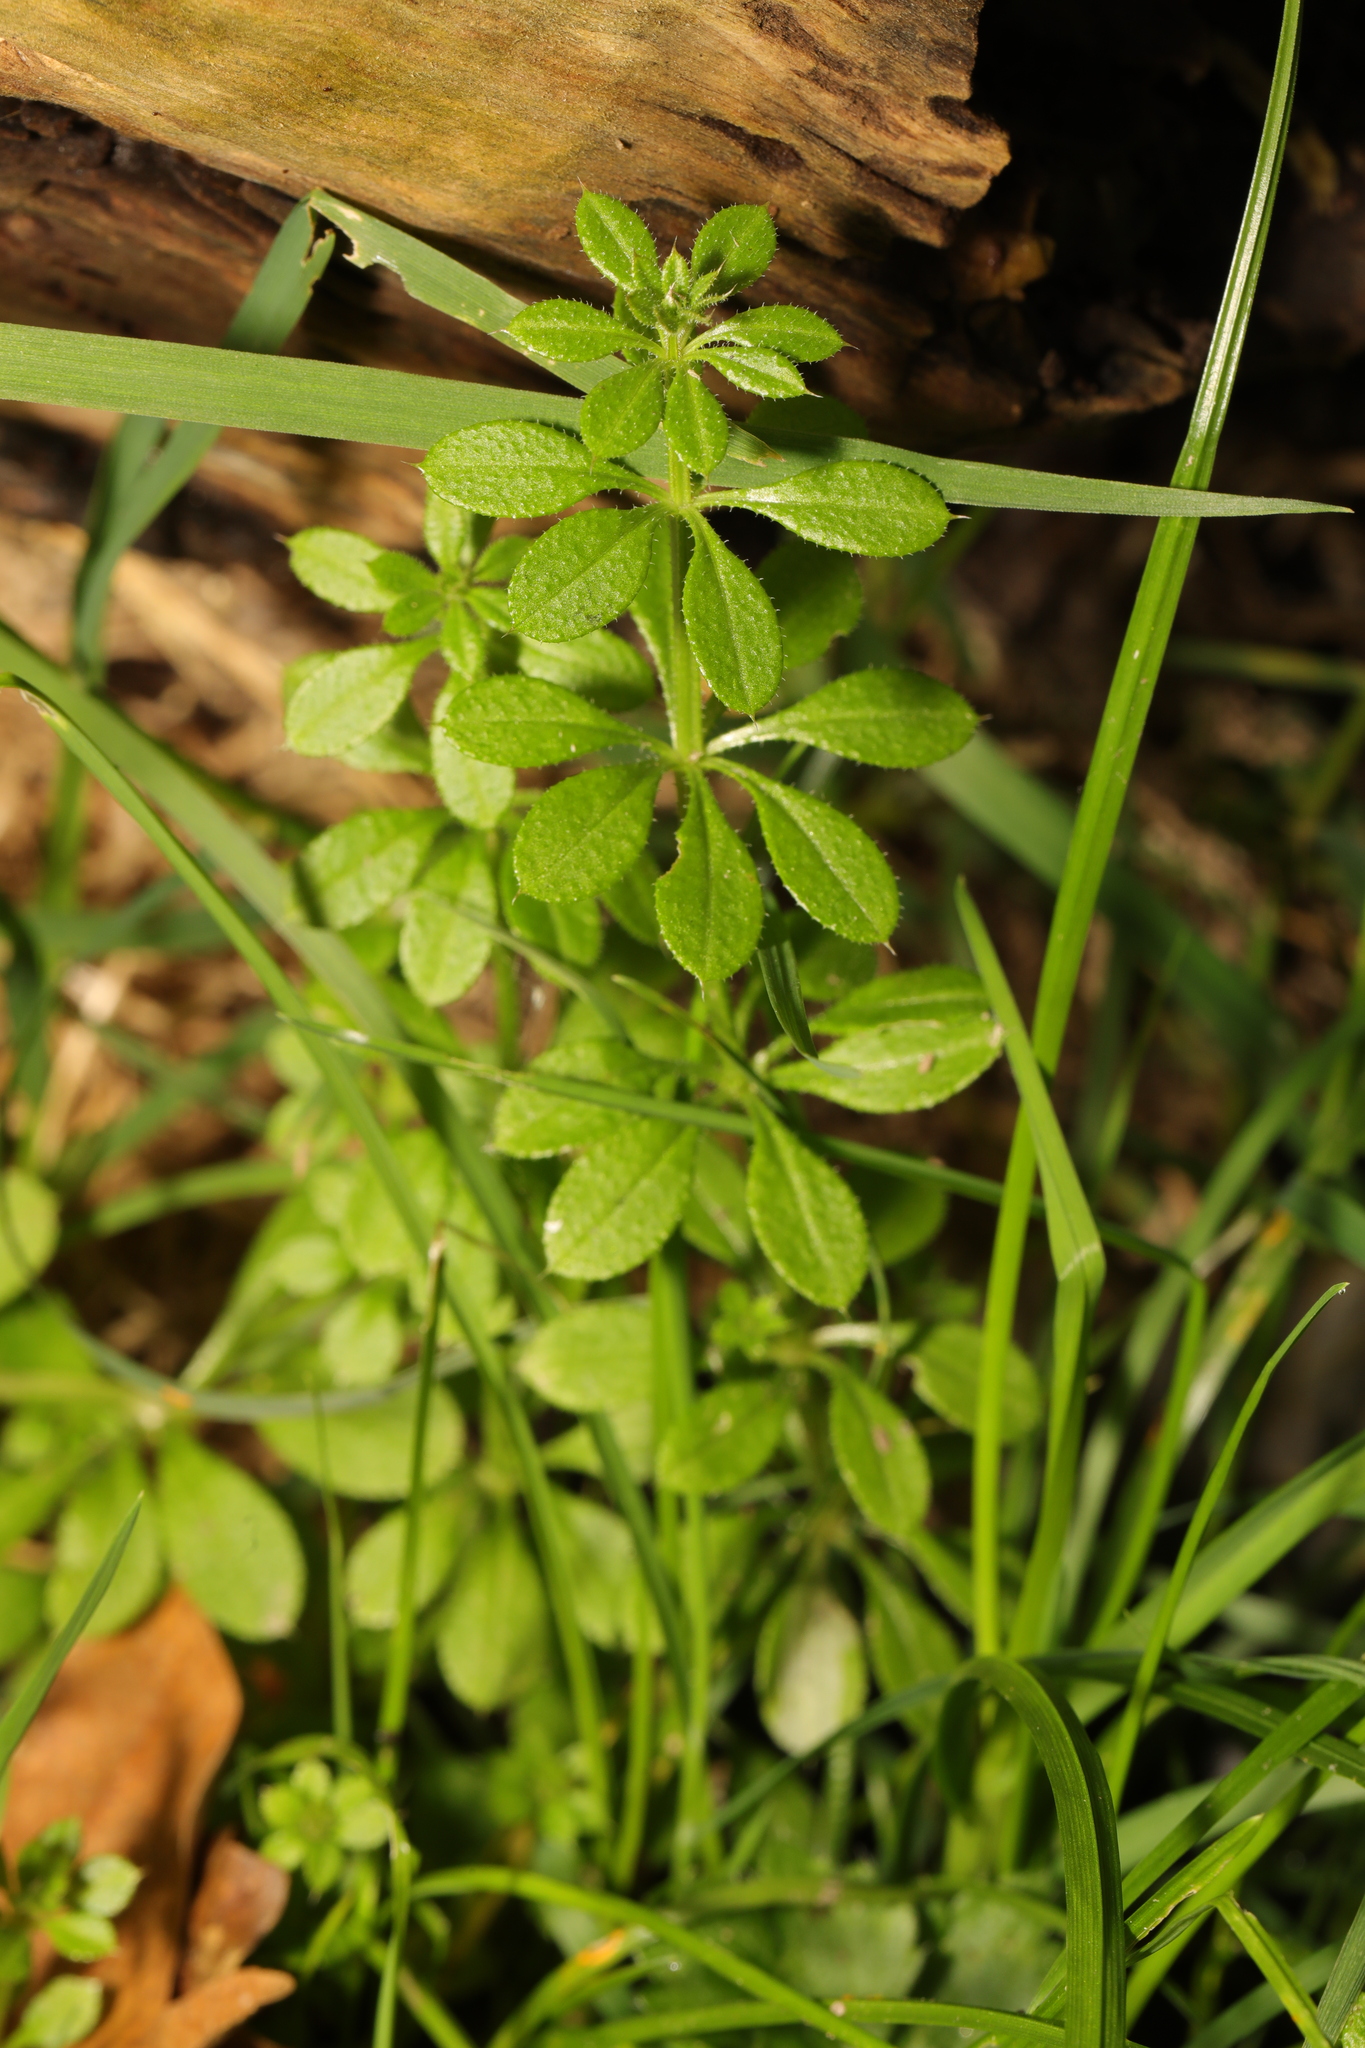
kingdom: Plantae
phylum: Tracheophyta
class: Magnoliopsida
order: Gentianales
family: Rubiaceae
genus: Galium
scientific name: Galium aparine
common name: Cleavers
